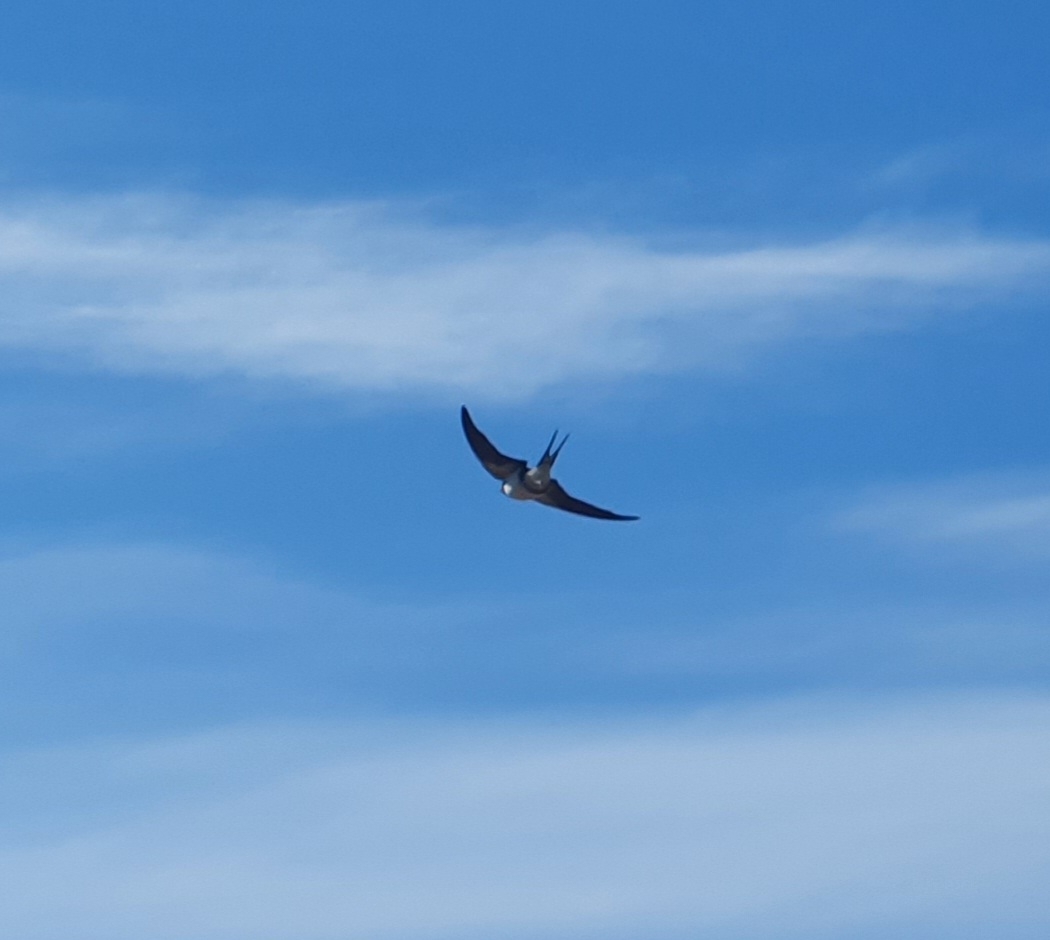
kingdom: Animalia
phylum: Chordata
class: Aves
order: Passeriformes
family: Hirundinidae
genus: Hirundo
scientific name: Hirundo rustica
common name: Barn swallow
